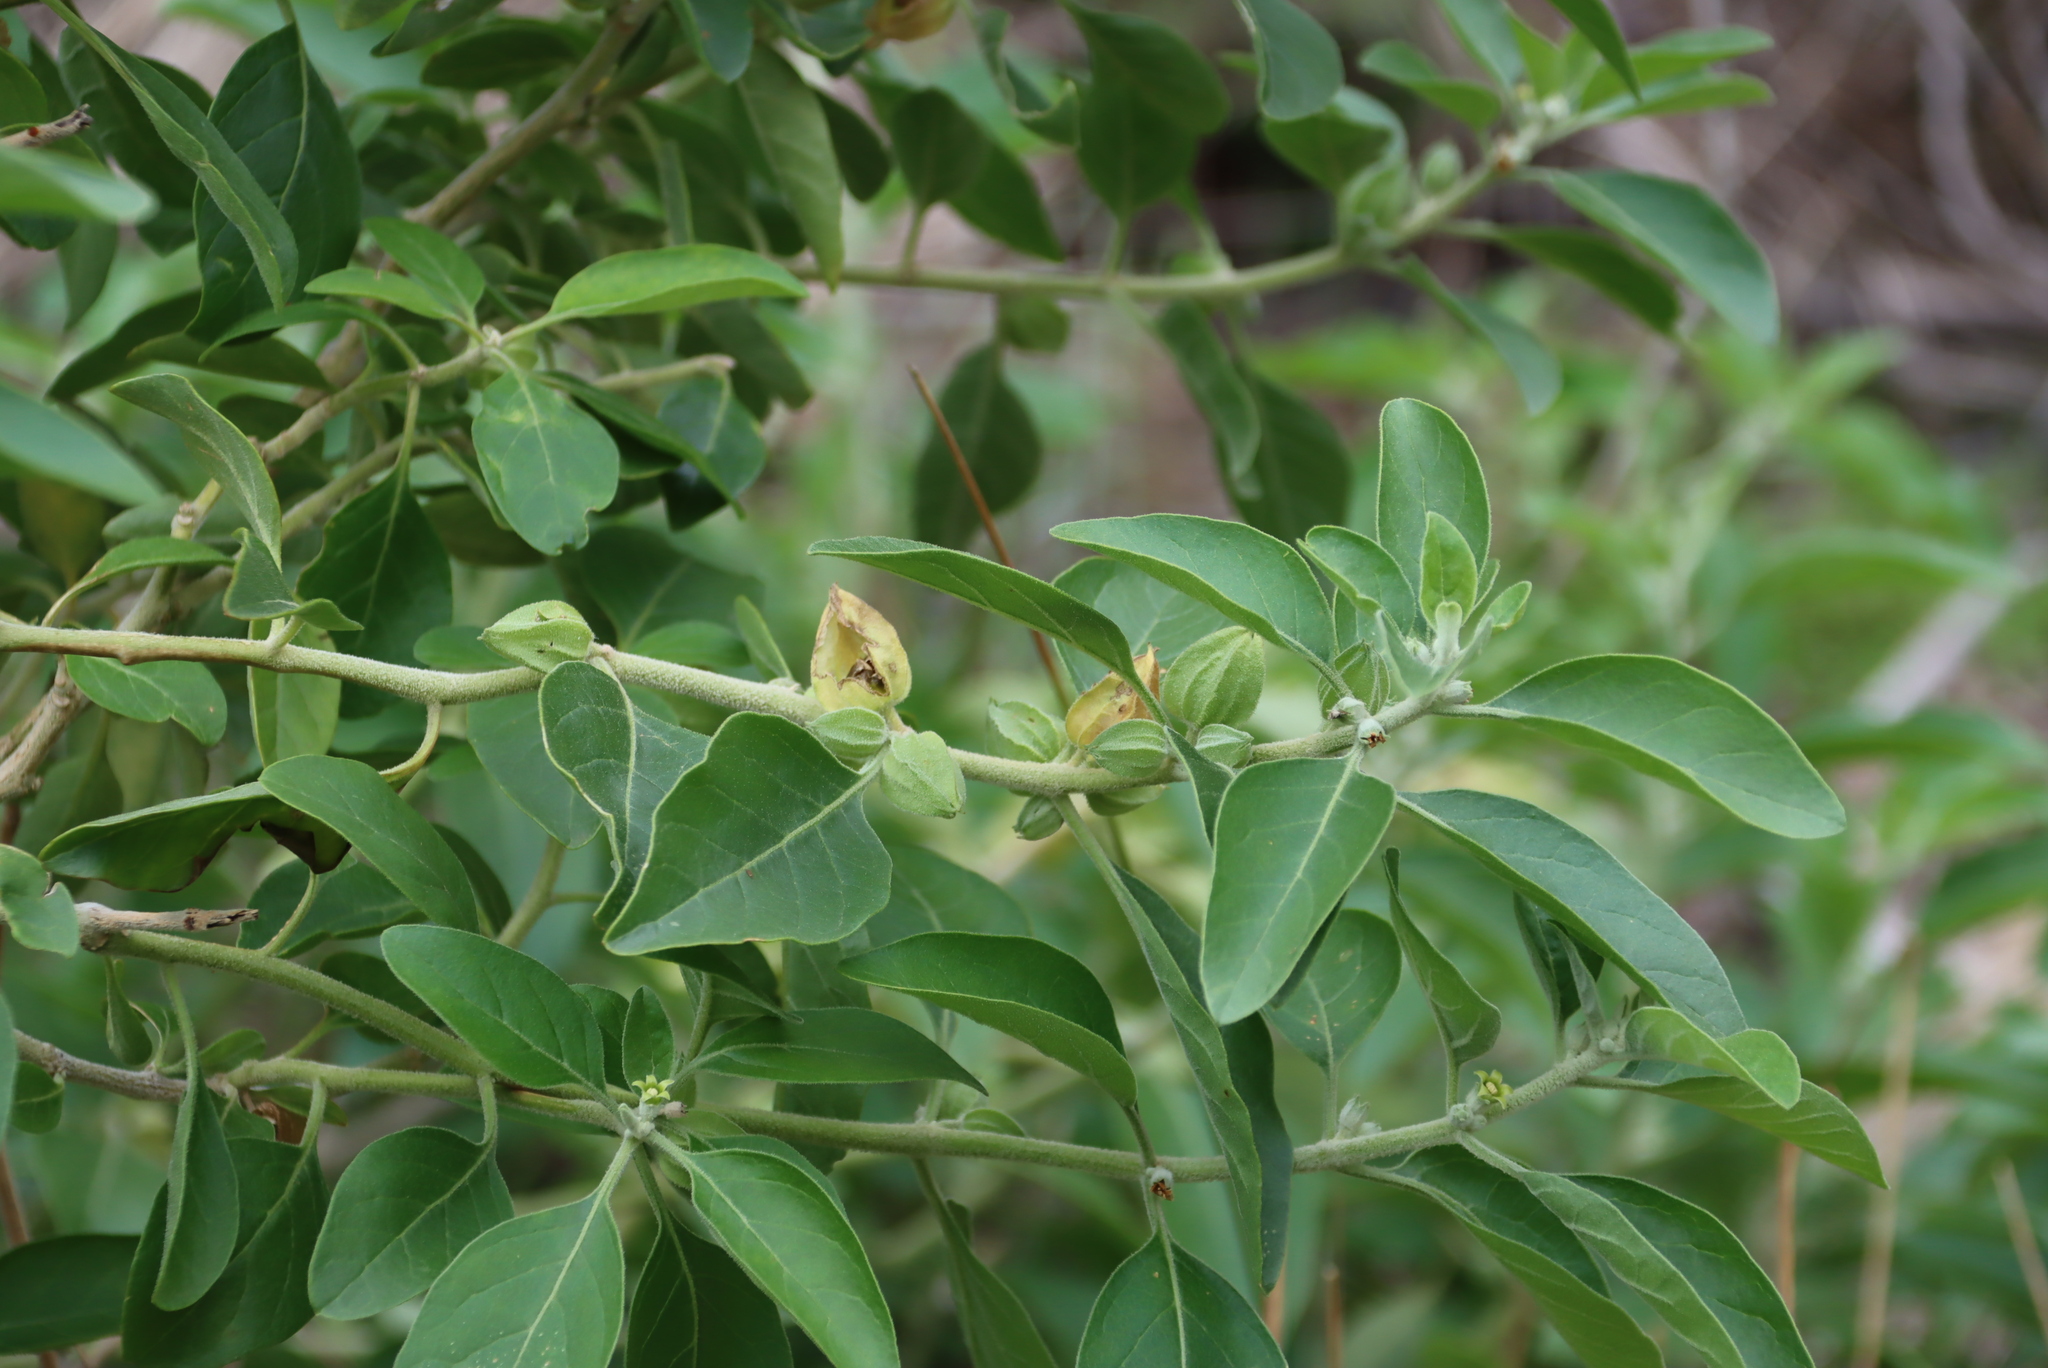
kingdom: Plantae
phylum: Tracheophyta
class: Magnoliopsida
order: Solanales
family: Solanaceae
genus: Withania
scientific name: Withania somnifera
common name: Winter-cherry
